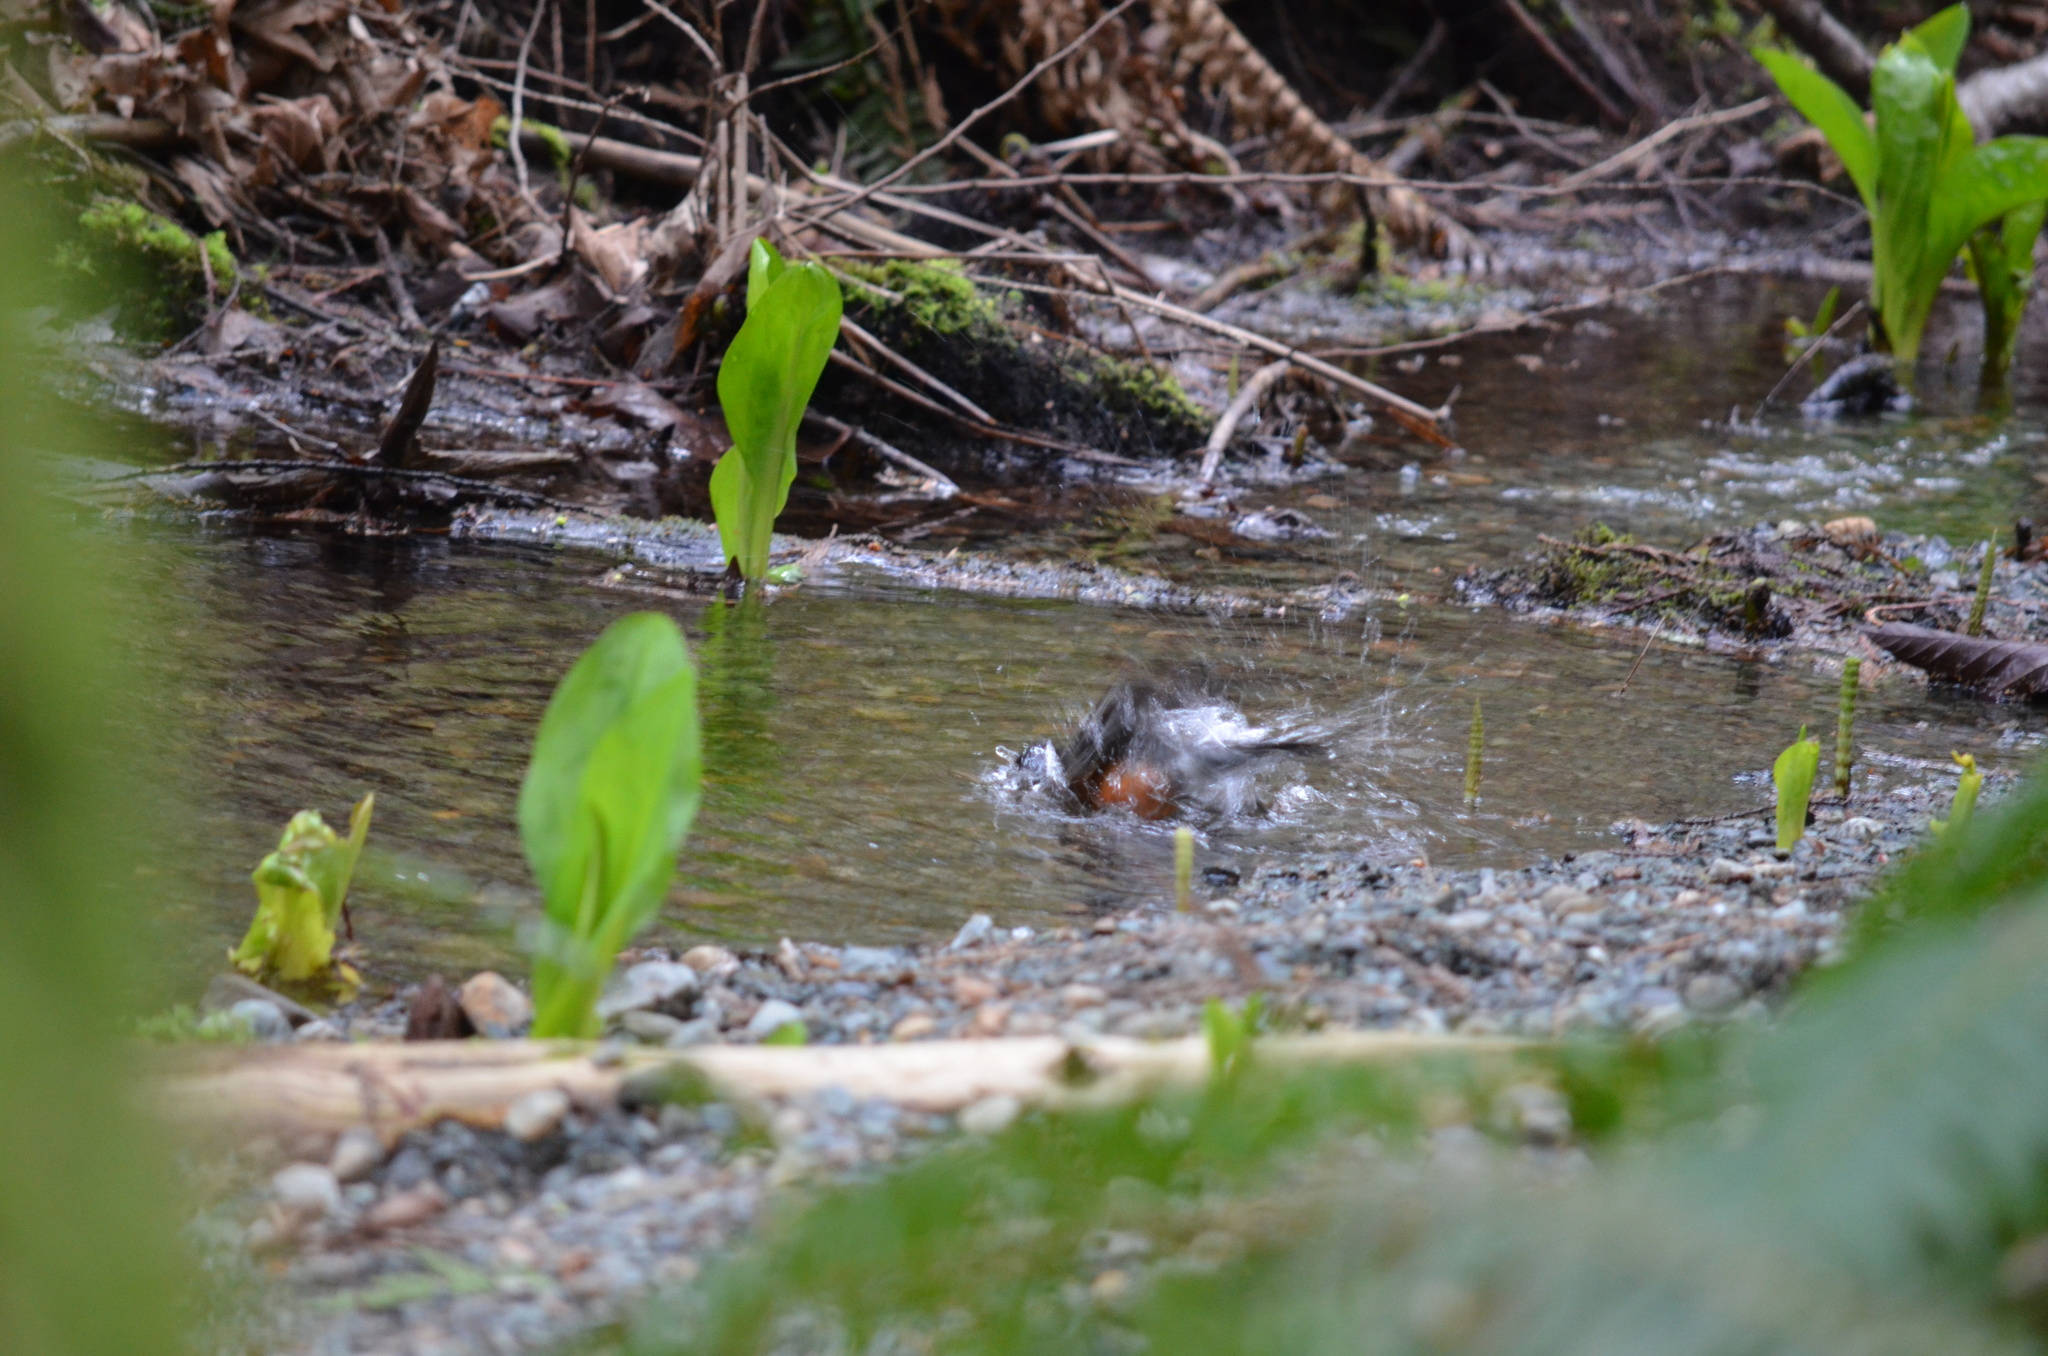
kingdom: Animalia
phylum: Chordata
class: Aves
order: Passeriformes
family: Turdidae
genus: Turdus
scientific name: Turdus migratorius
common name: American robin
